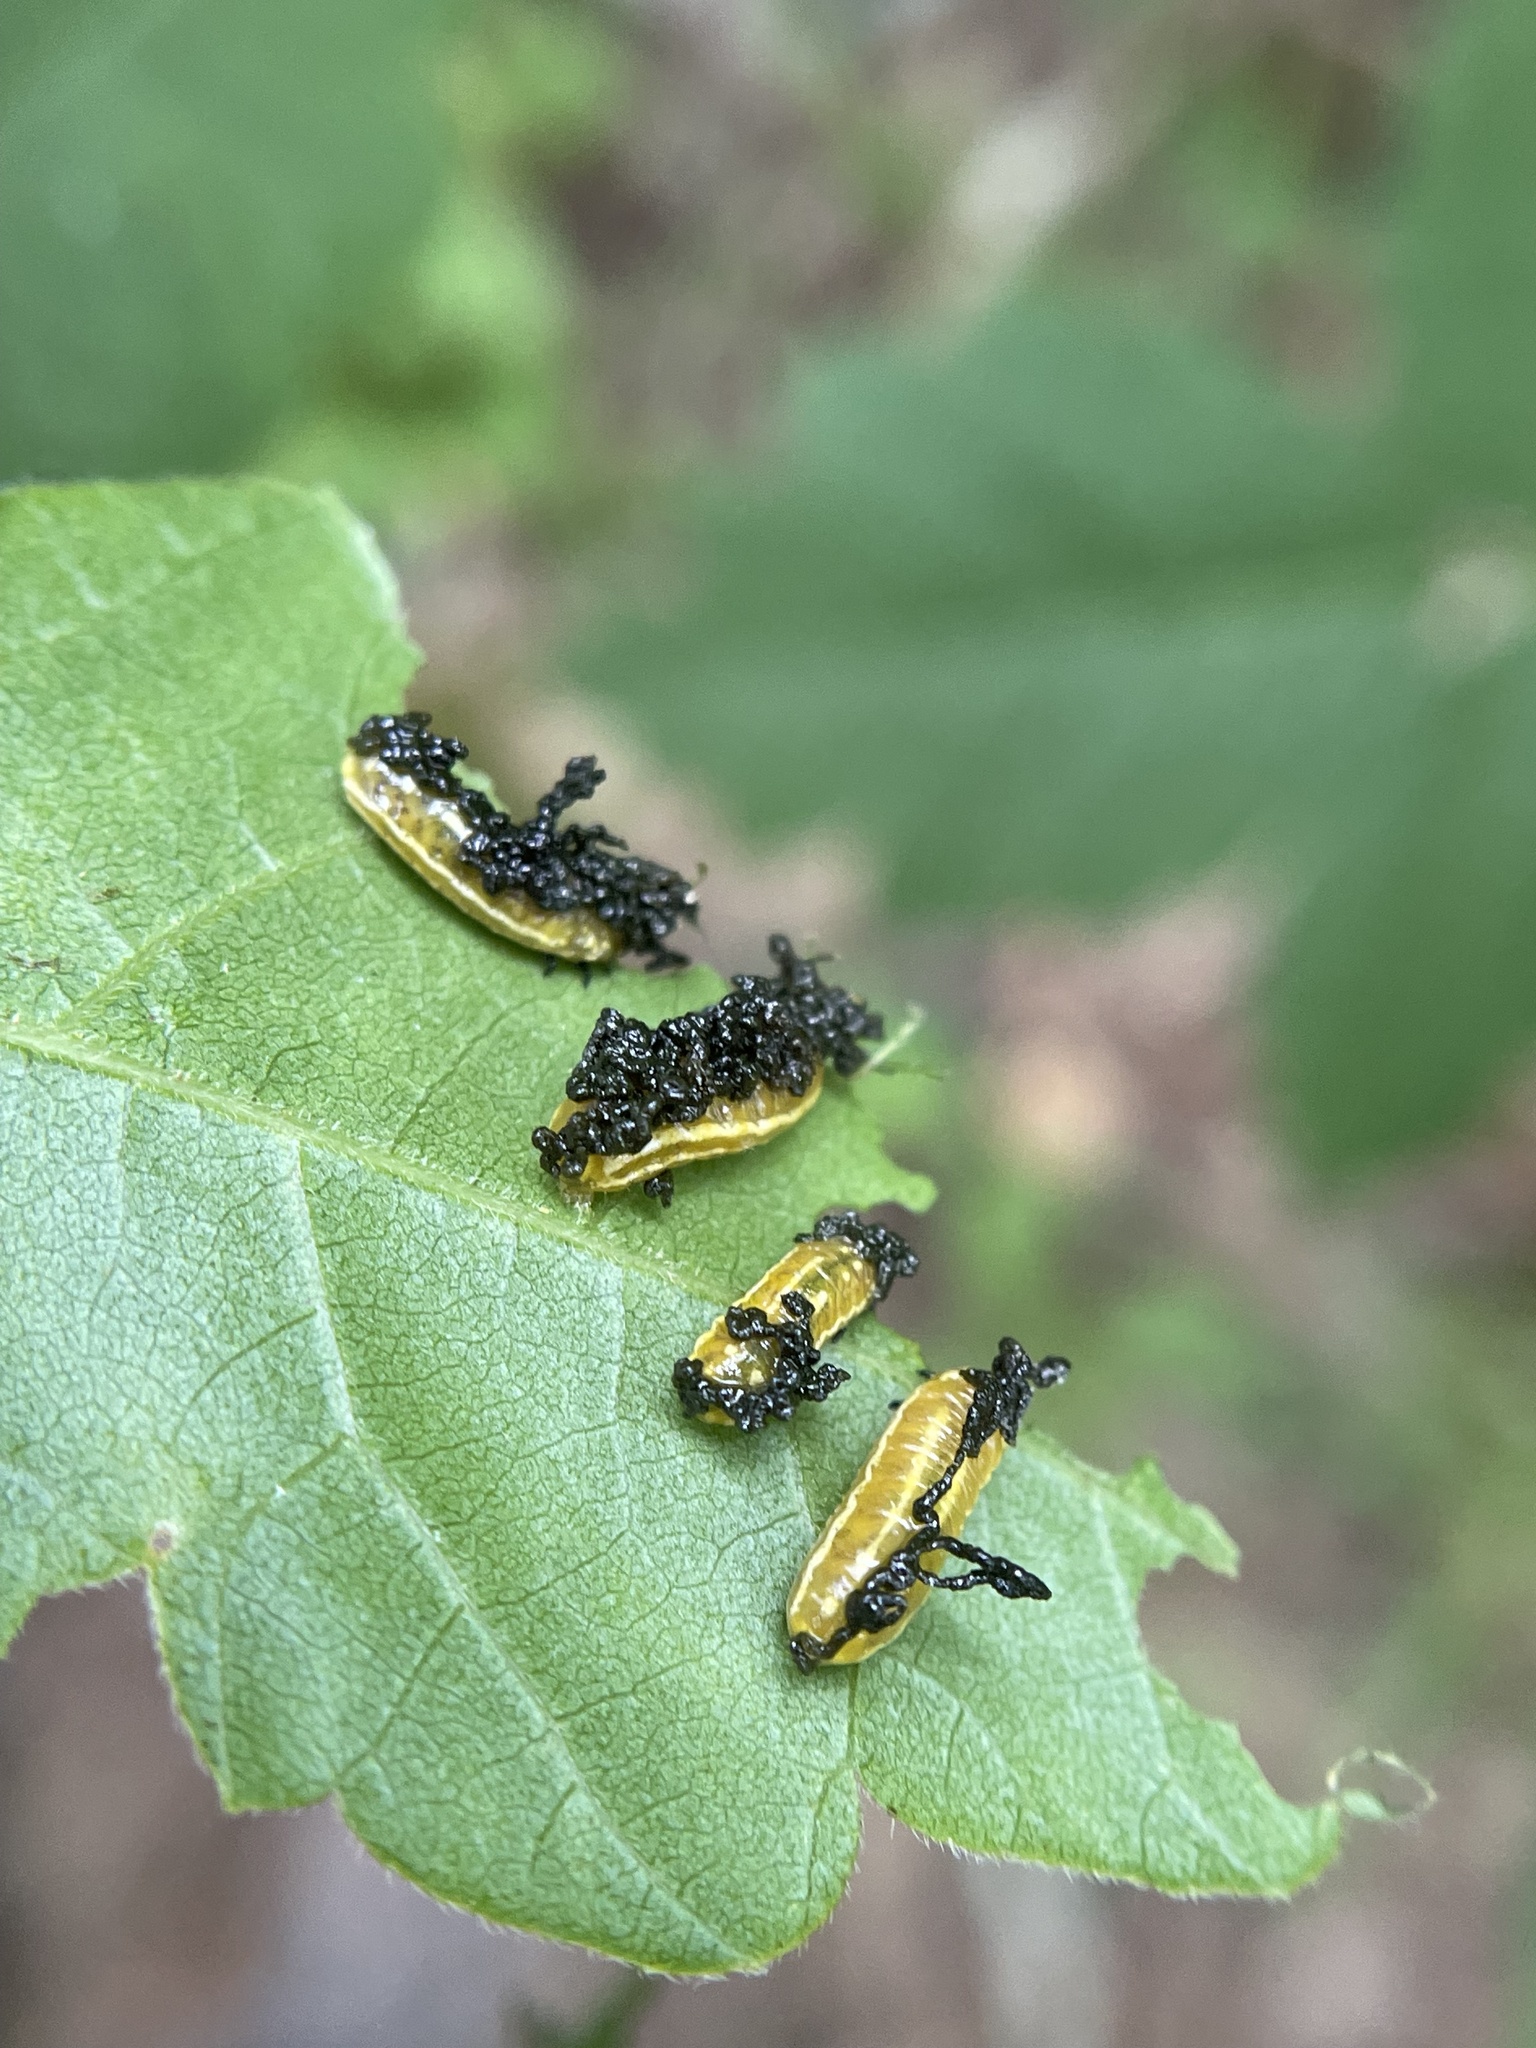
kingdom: Animalia
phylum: Arthropoda
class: Insecta
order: Coleoptera
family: Chrysomelidae
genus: Blepharida
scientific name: Blepharida rhois
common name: Sumac flea beetle
